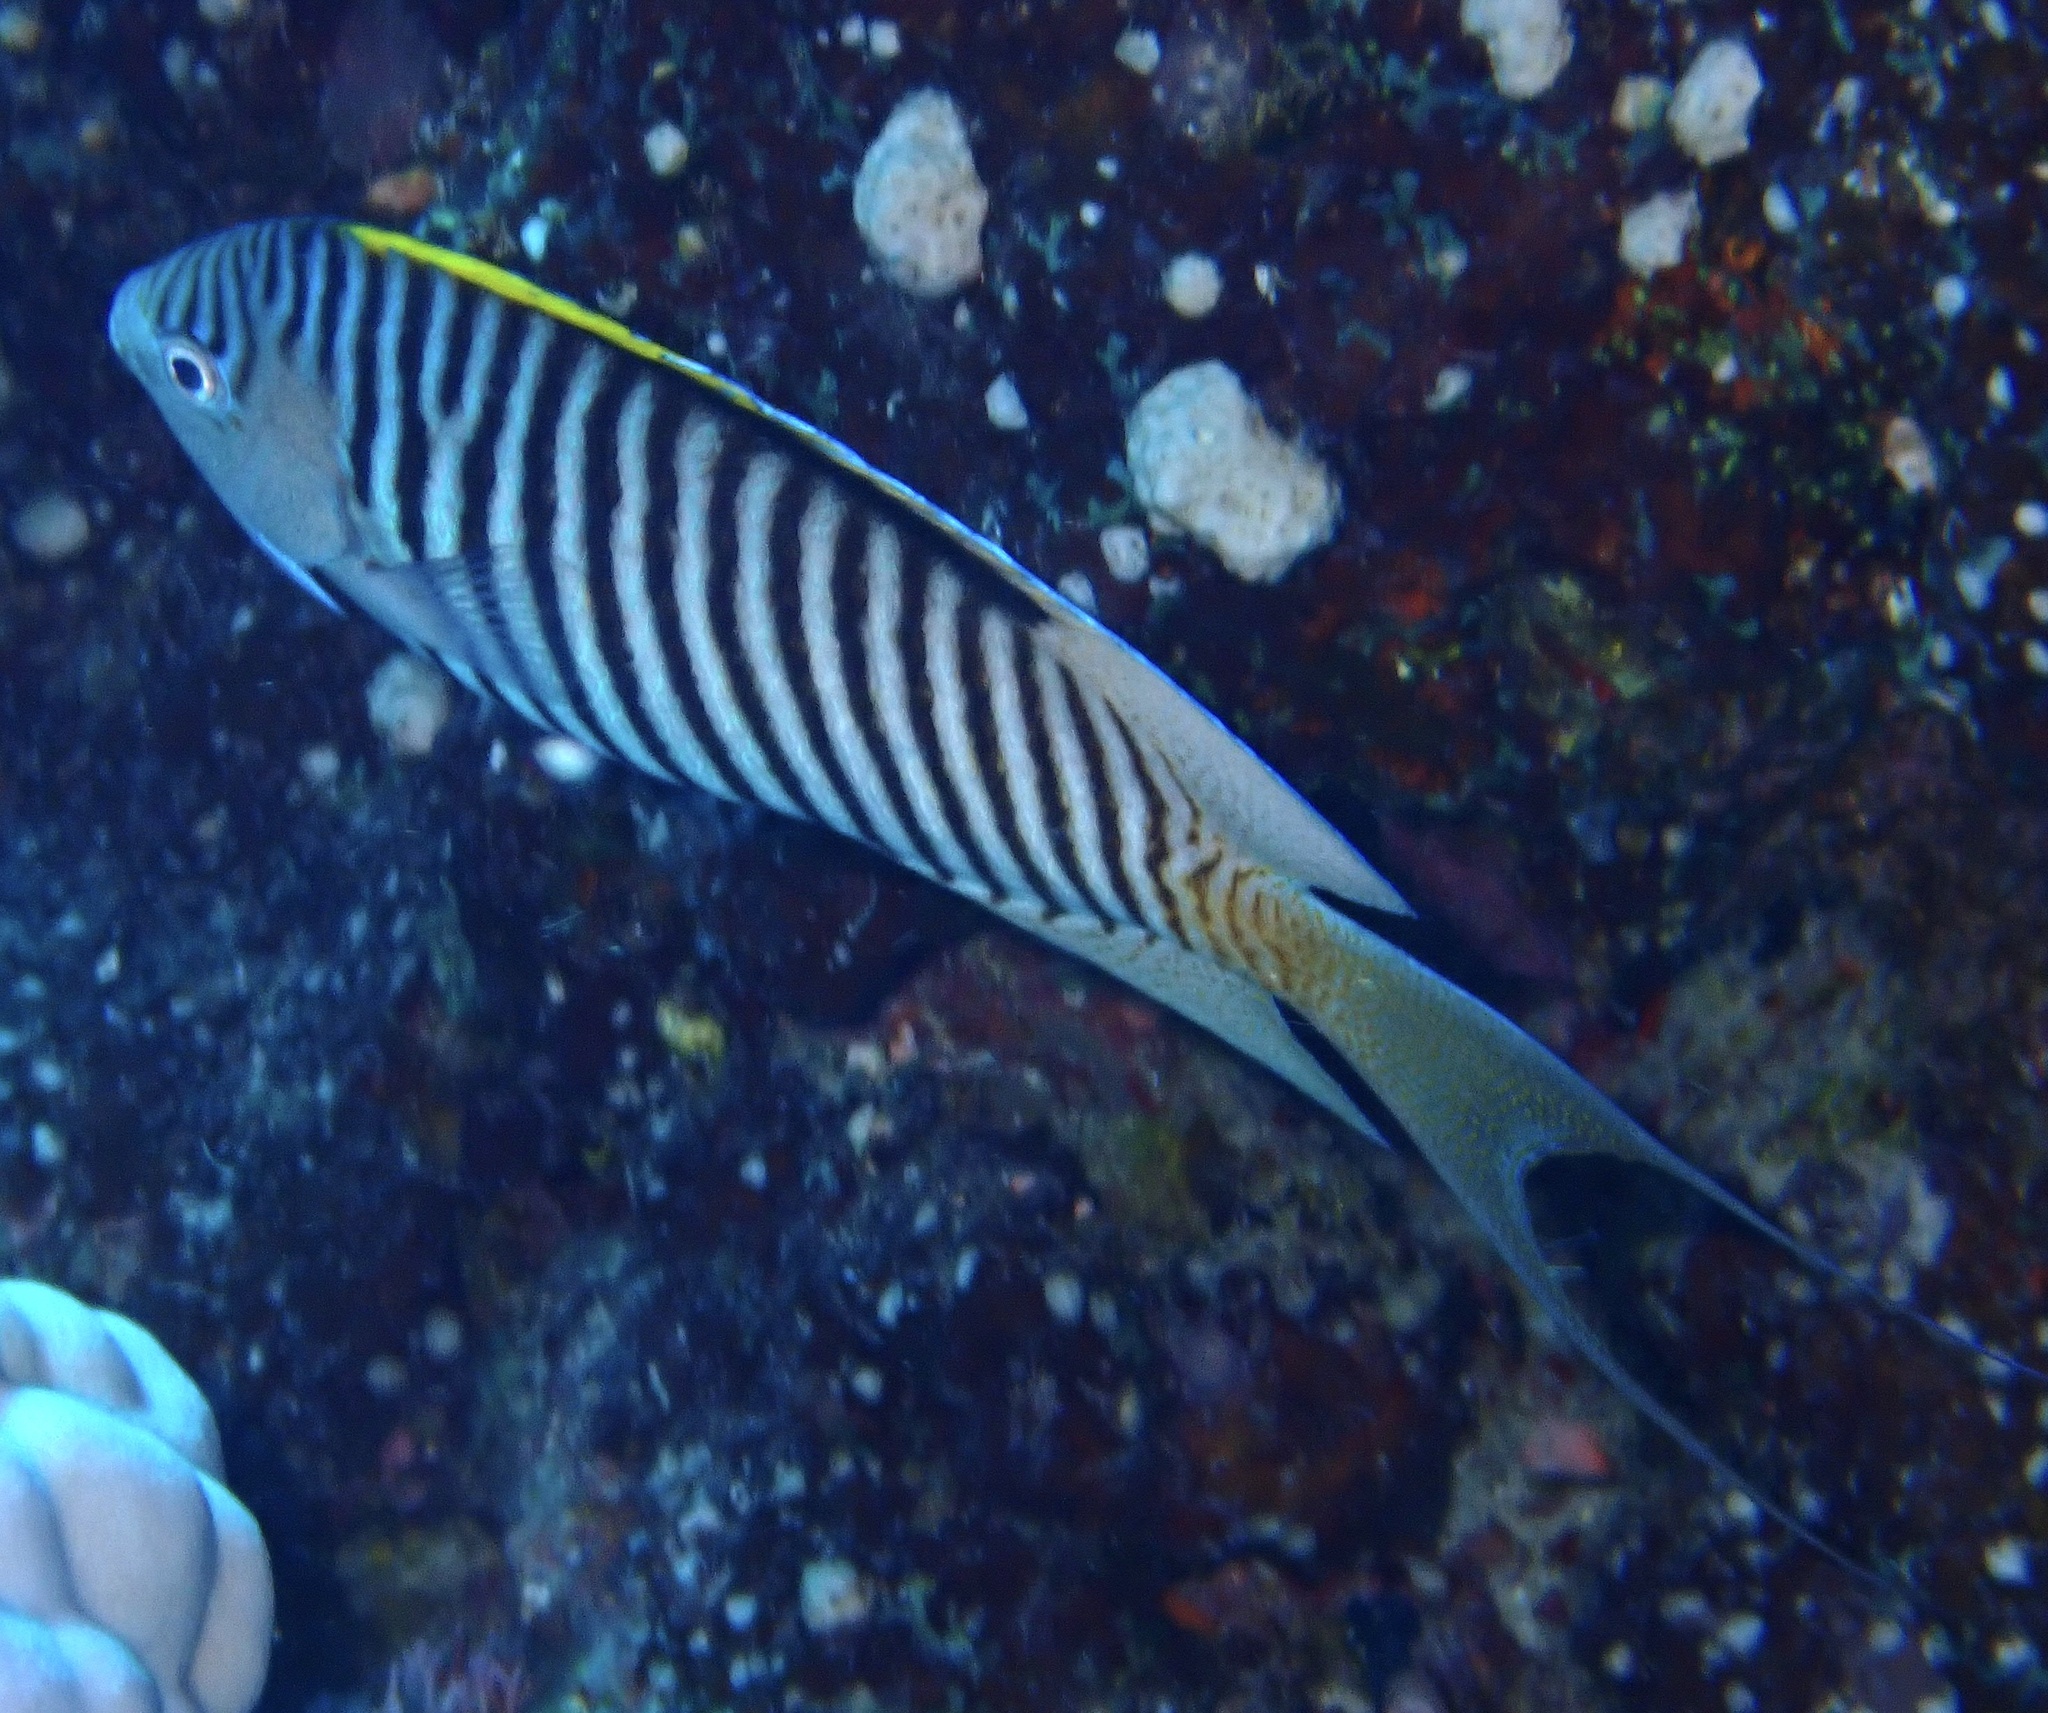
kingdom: Animalia
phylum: Chordata
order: Perciformes
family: Pomacanthidae
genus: Genicanthus
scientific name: Genicanthus caudovittatus
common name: Lyretail angelfish
